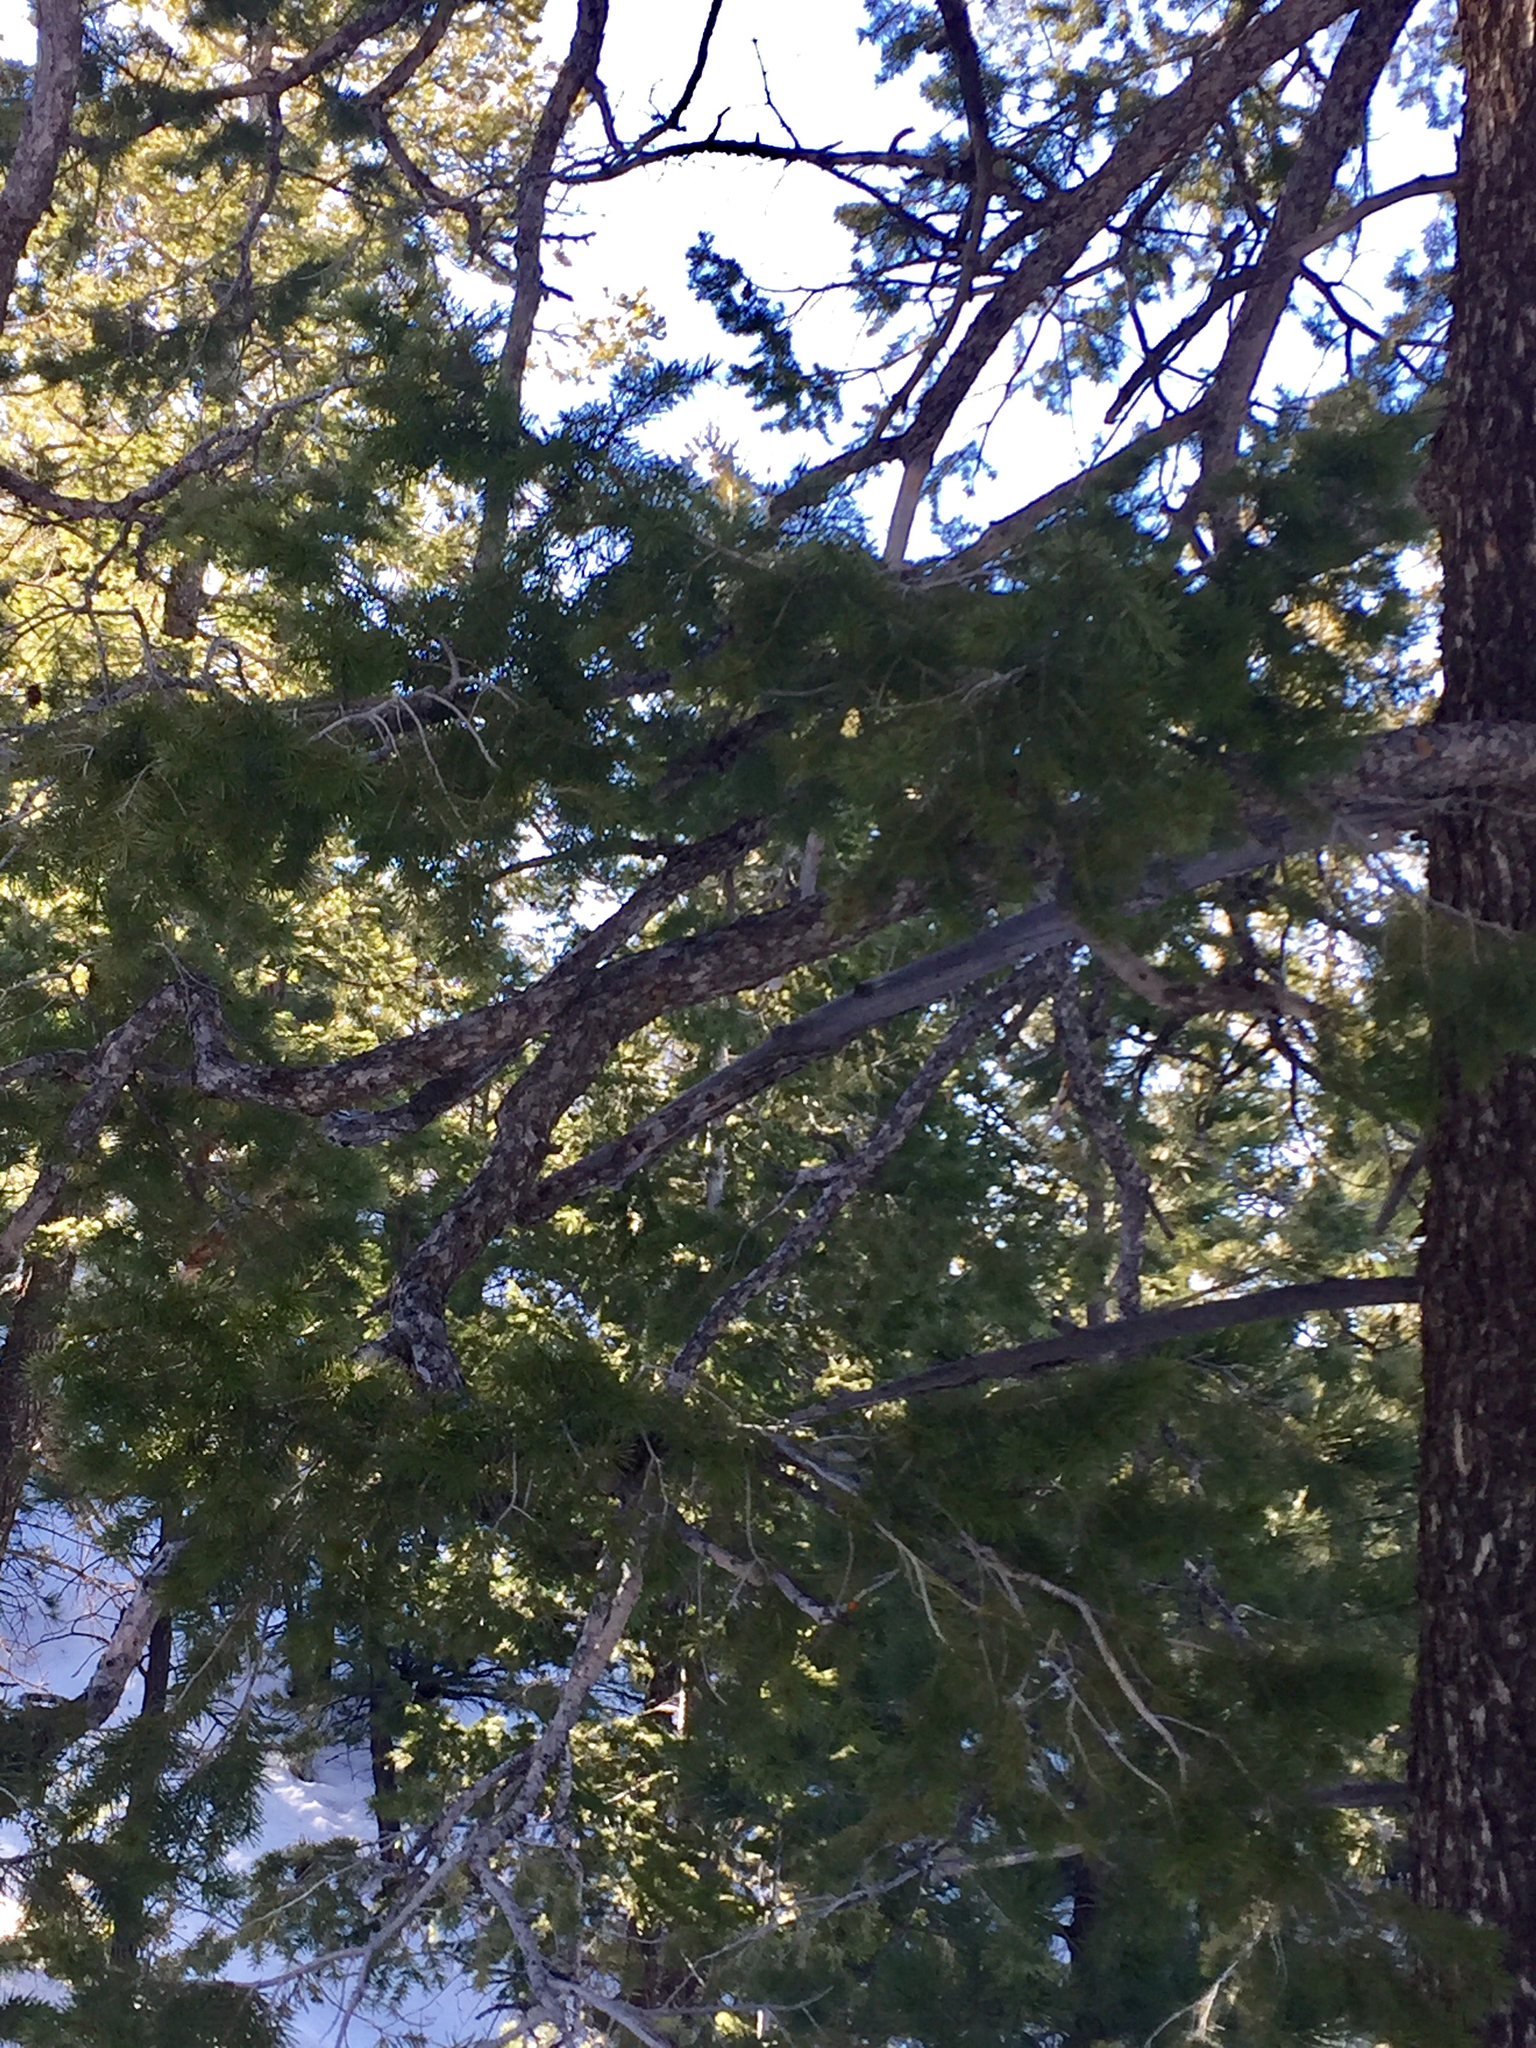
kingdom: Plantae
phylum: Tracheophyta
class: Pinopsida
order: Pinales
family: Pinaceae
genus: Pseudotsuga
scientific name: Pseudotsuga menziesii
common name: Douglas fir
